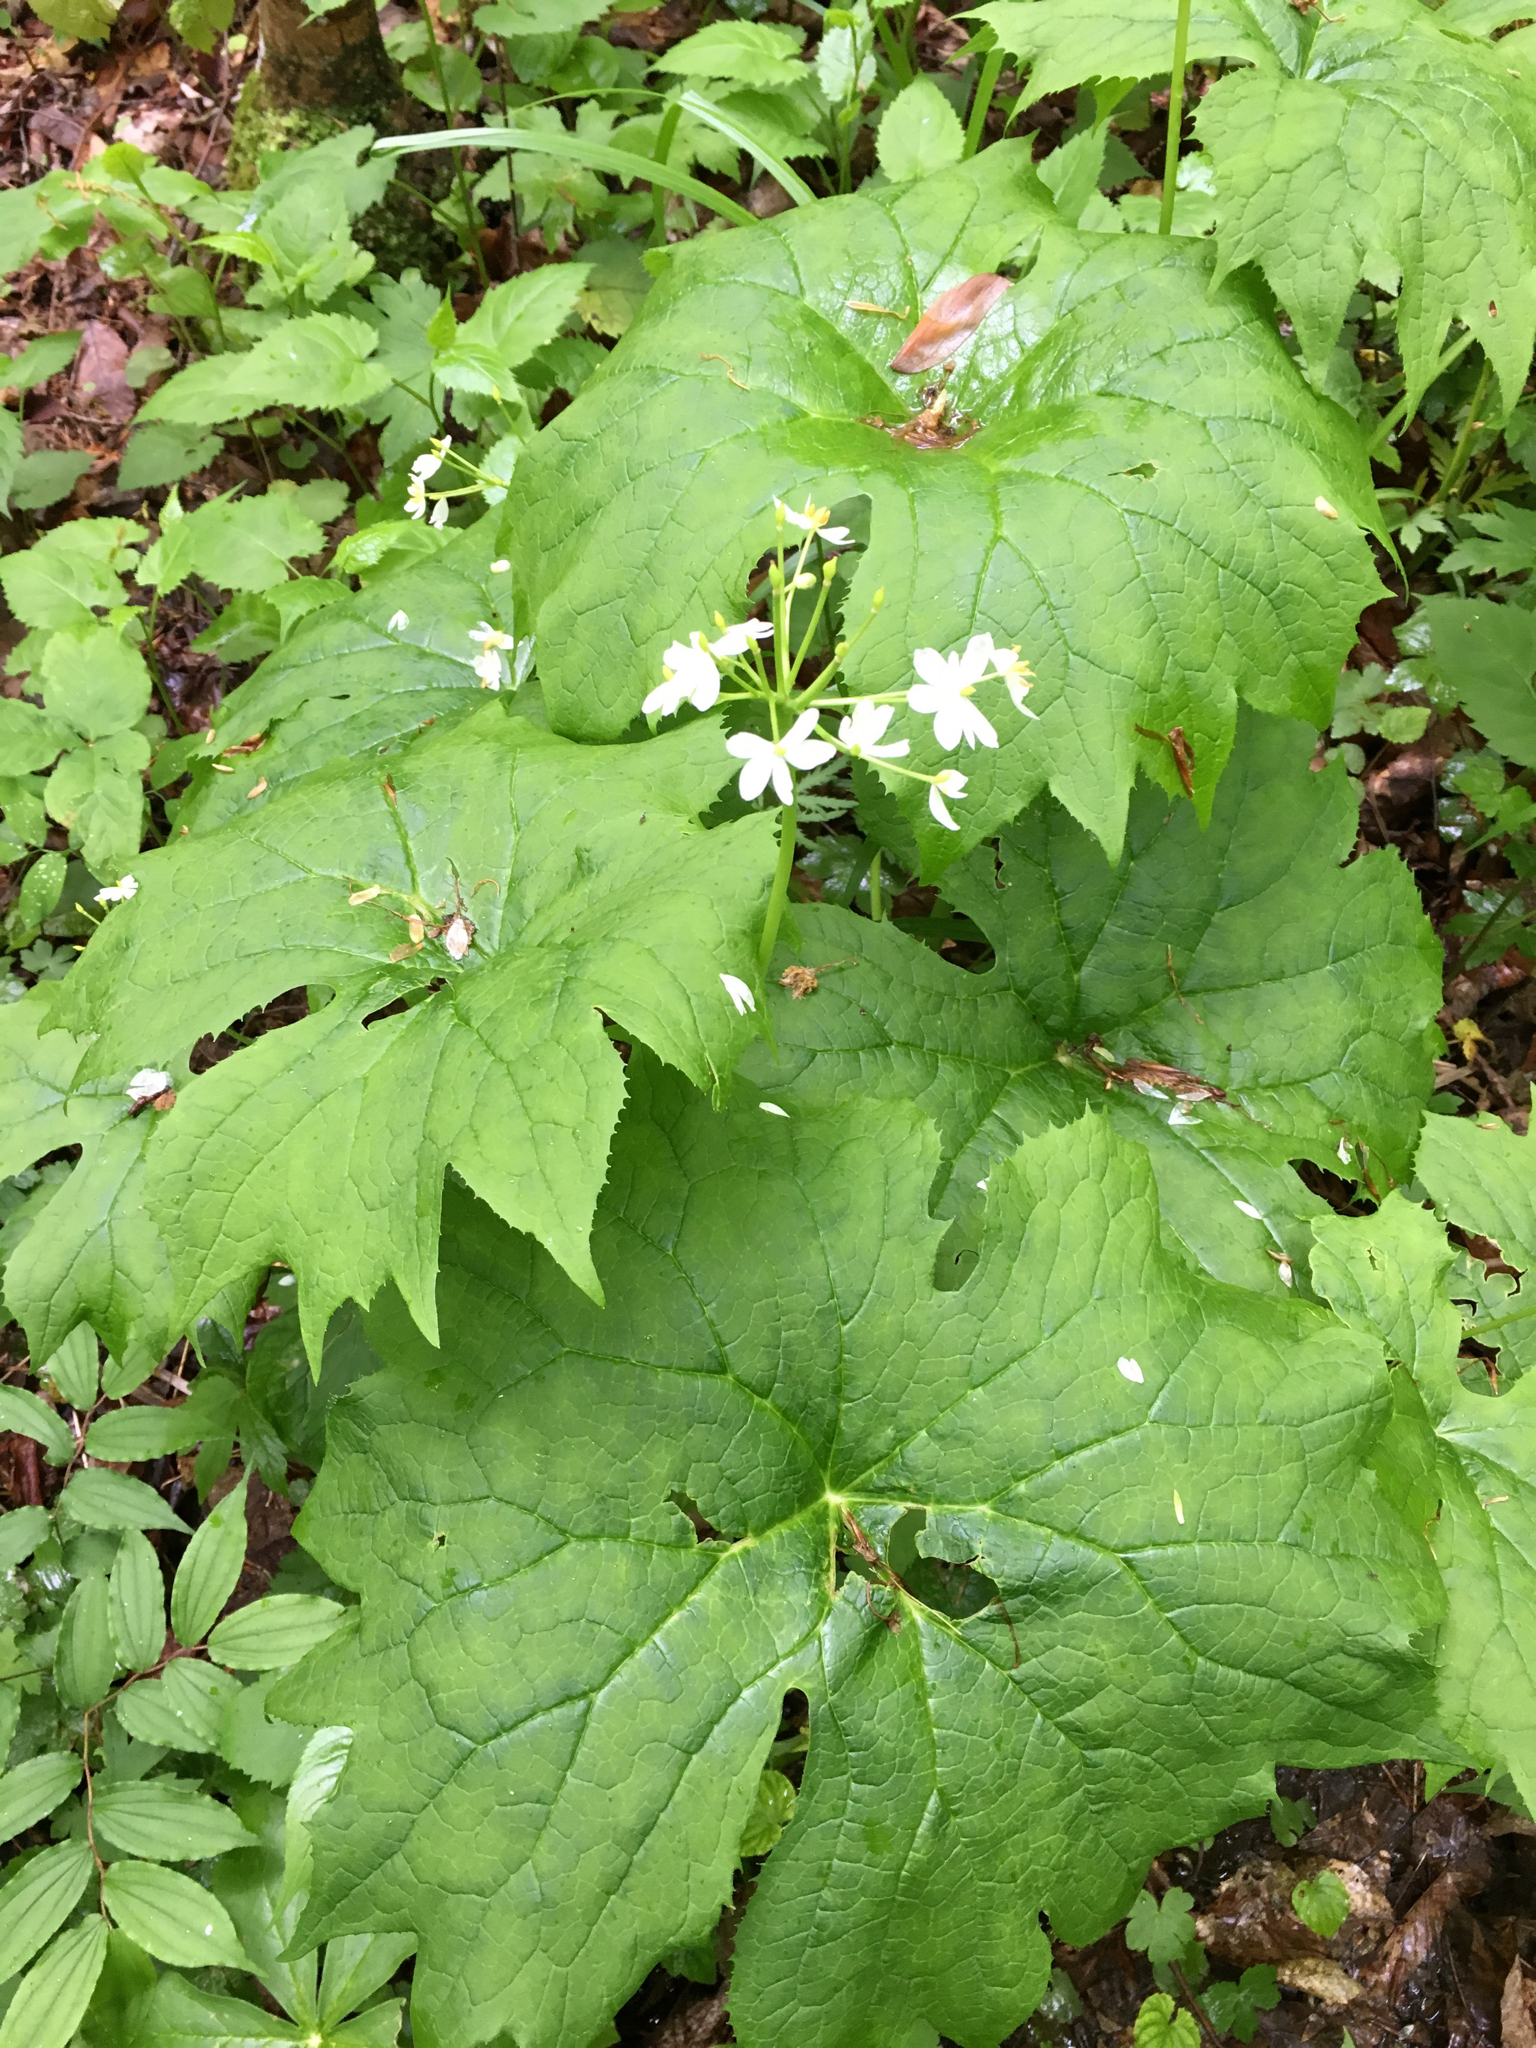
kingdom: Plantae
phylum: Tracheophyta
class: Magnoliopsida
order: Ranunculales
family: Berberidaceae
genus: Diphylleia
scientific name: Diphylleia cymosa
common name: Umbrella-leaf
